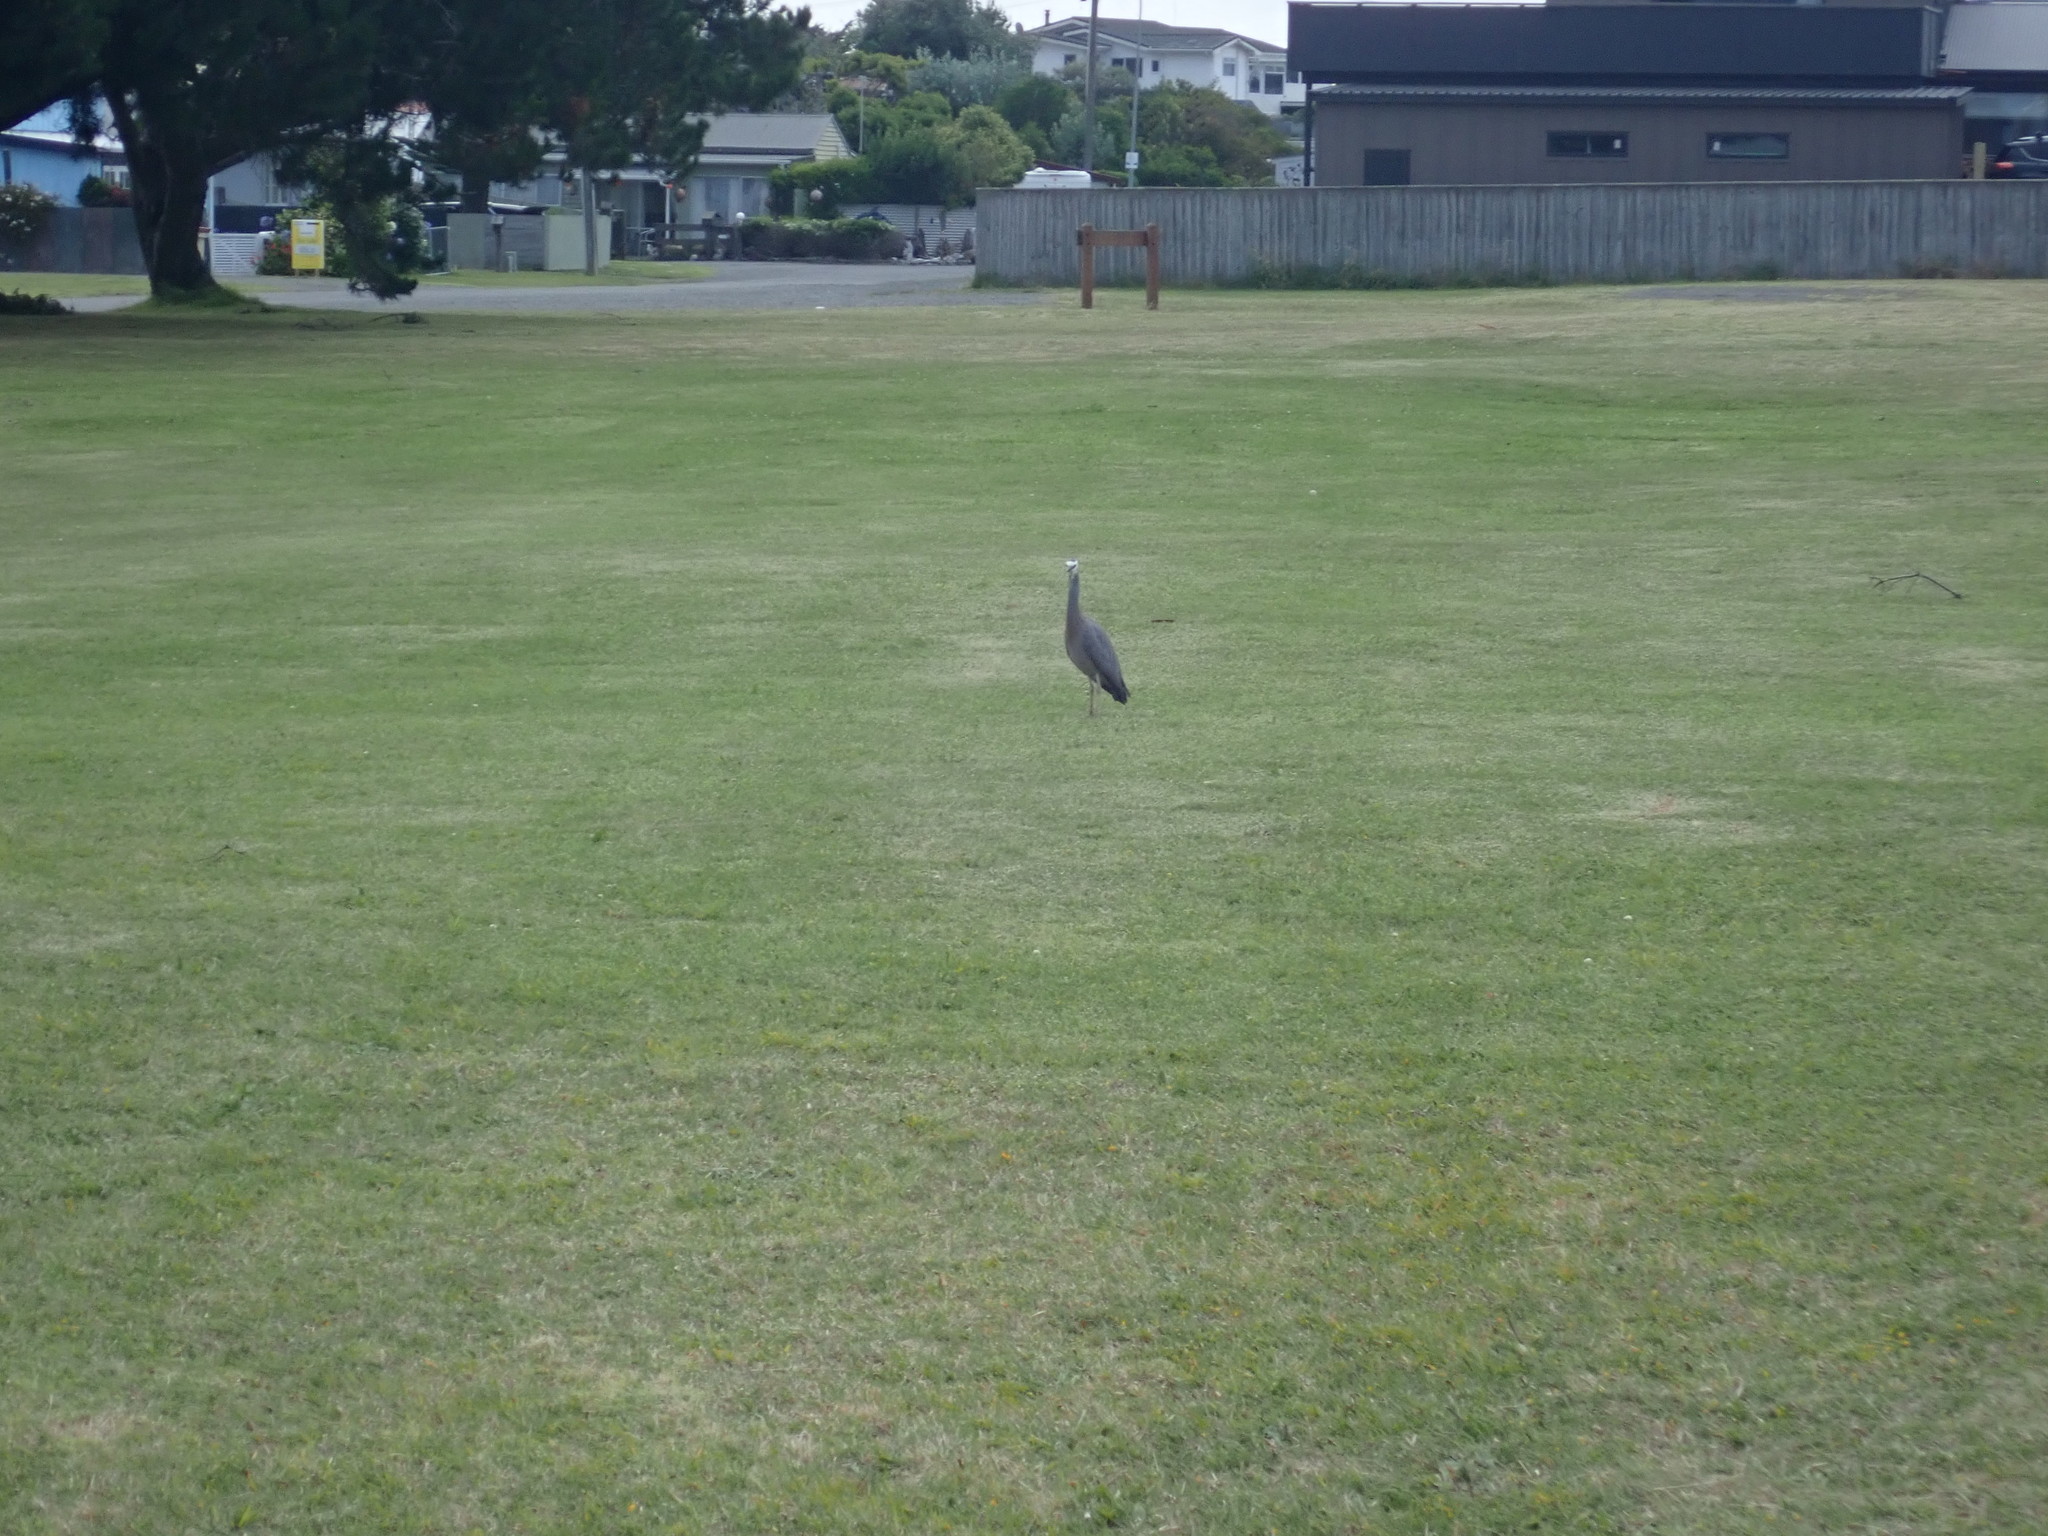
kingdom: Animalia
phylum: Chordata
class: Aves
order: Pelecaniformes
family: Ardeidae
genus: Egretta
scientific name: Egretta novaehollandiae
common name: White-faced heron
